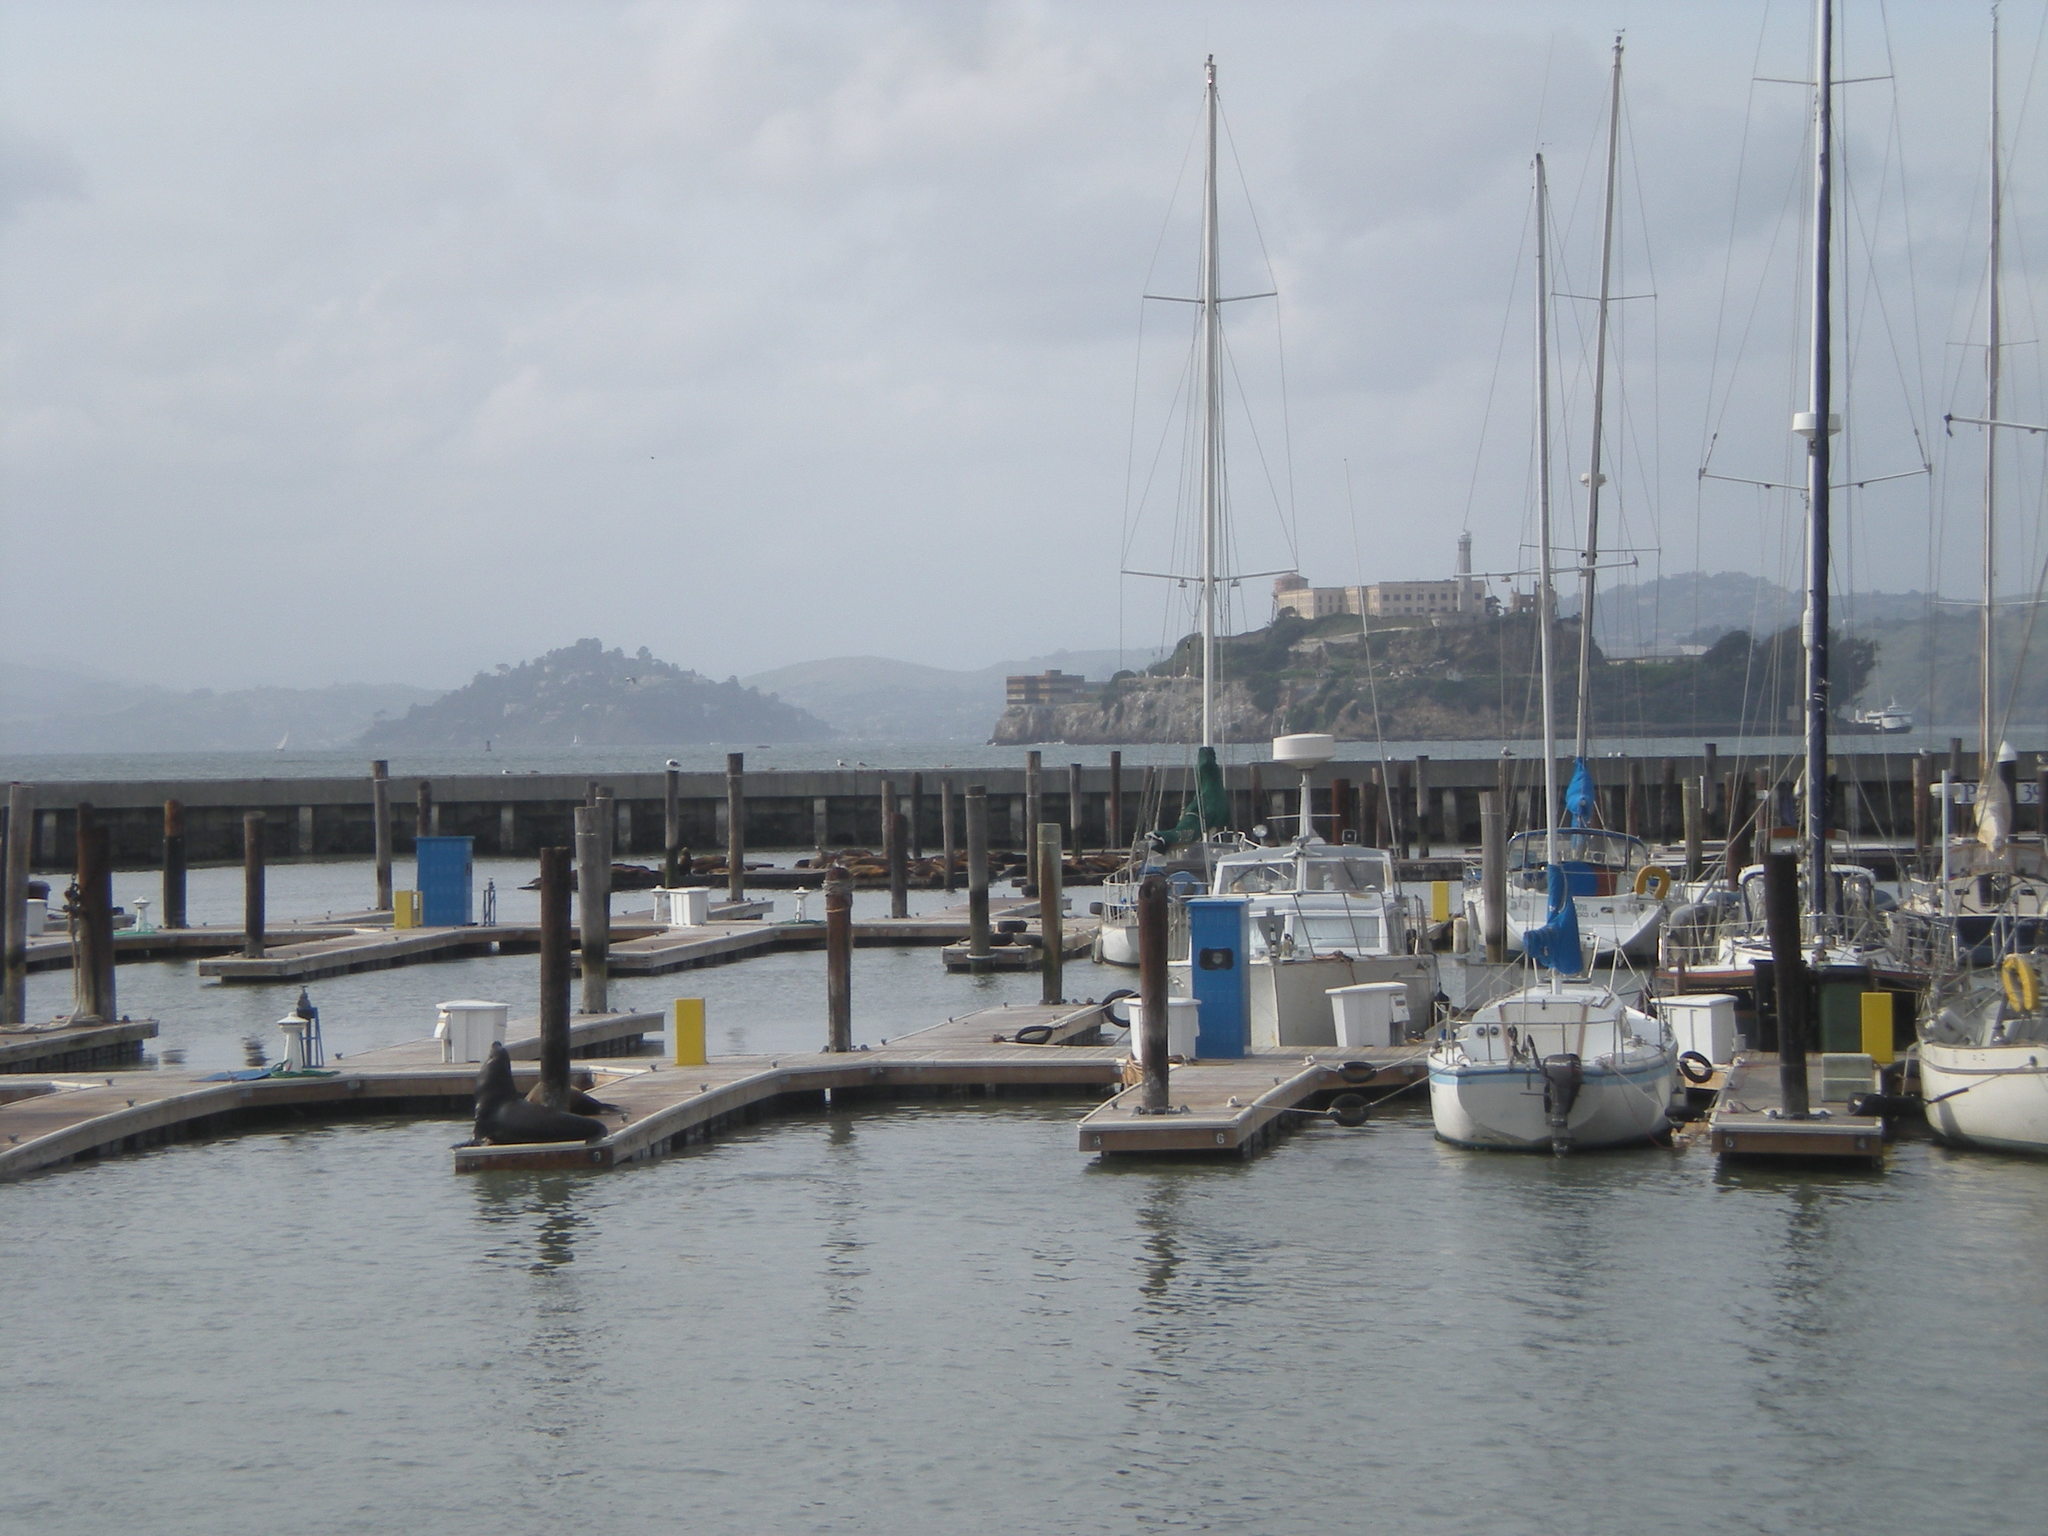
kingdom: Animalia
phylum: Chordata
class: Mammalia
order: Carnivora
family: Otariidae
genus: Zalophus
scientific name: Zalophus californianus
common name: California sea lion
